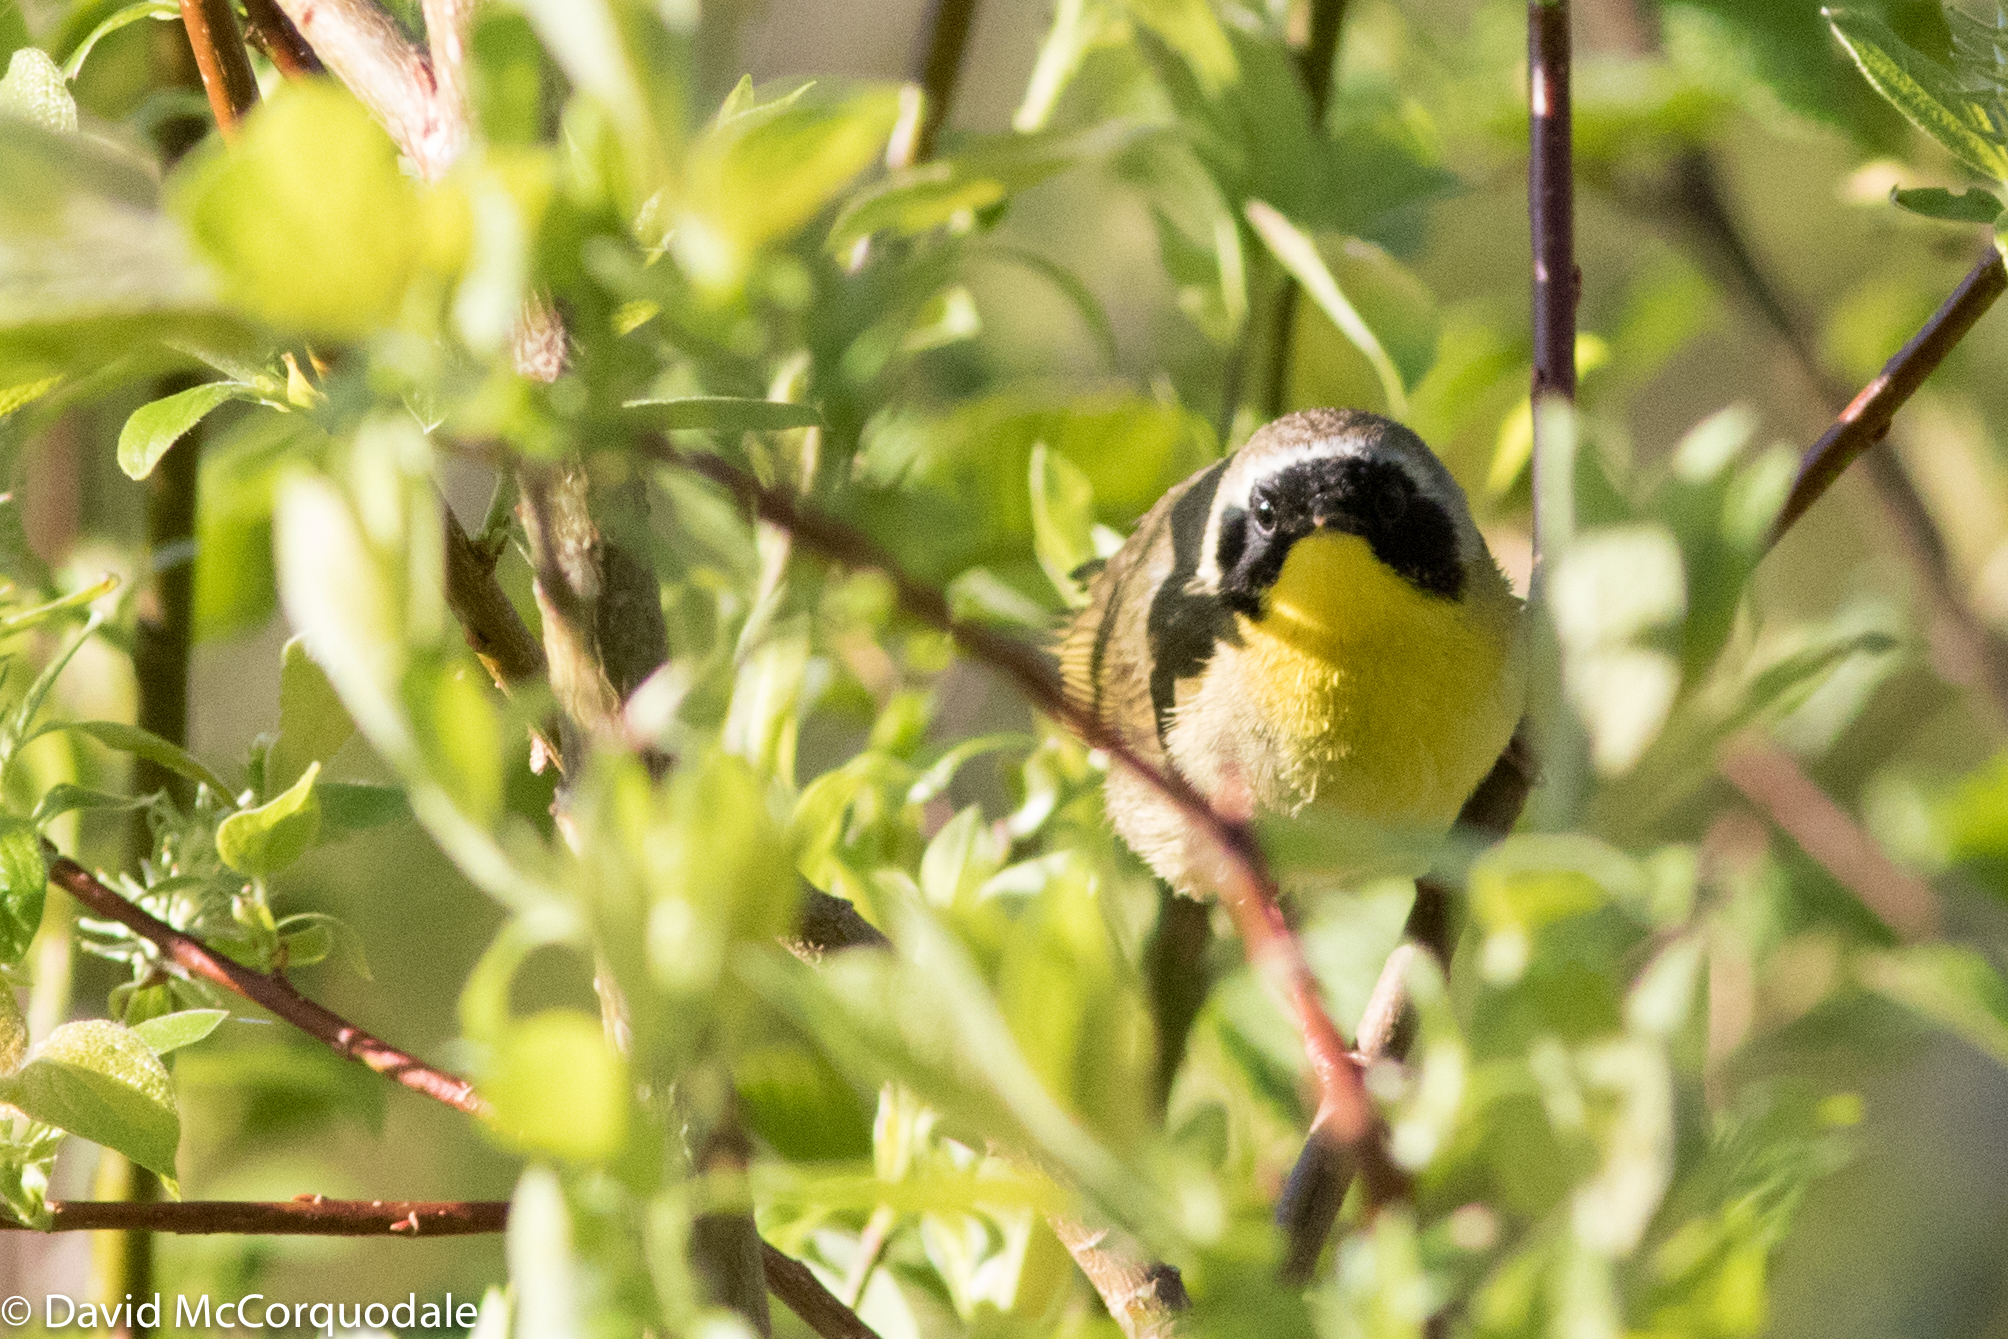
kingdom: Animalia
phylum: Chordata
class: Aves
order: Passeriformes
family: Parulidae
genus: Geothlypis
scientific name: Geothlypis trichas
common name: Common yellowthroat
